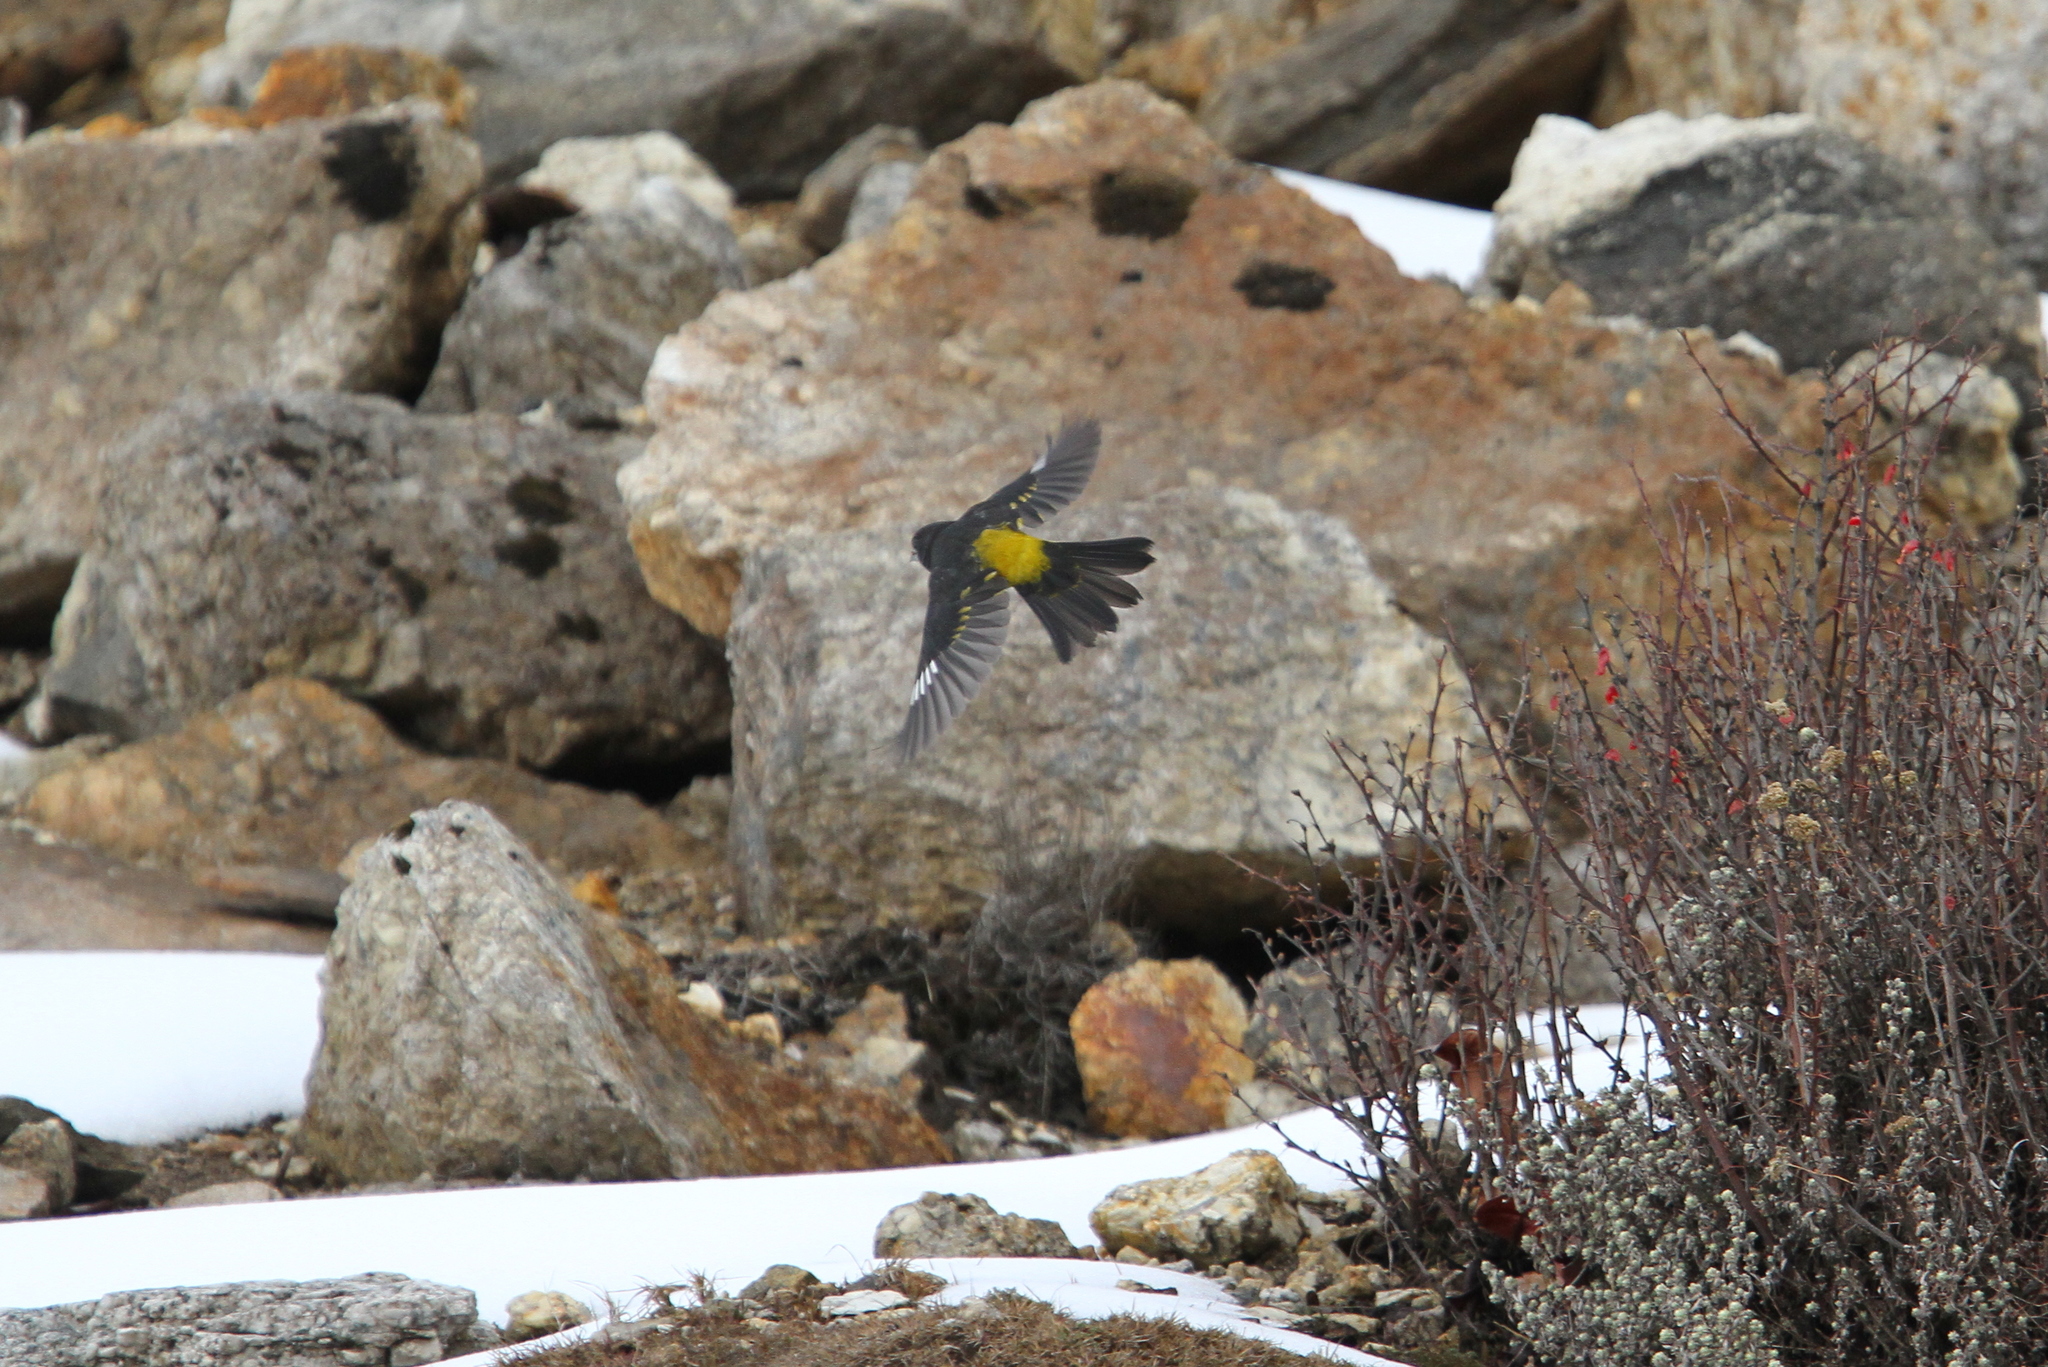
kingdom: Animalia
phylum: Chordata
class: Aves
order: Passeriformes
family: Fringillidae
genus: Mycerobas
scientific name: Mycerobas carnipes
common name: White-winged grosbeak
